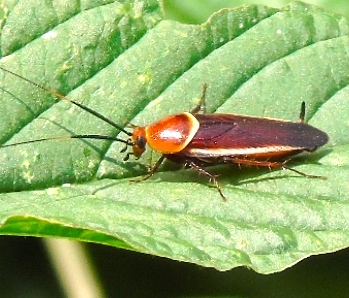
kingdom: Animalia
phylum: Arthropoda
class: Insecta
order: Blattodea
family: Ectobiidae
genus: Pseudomops
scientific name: Pseudomops septentrionalis
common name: Pale-bordered field cockroach
